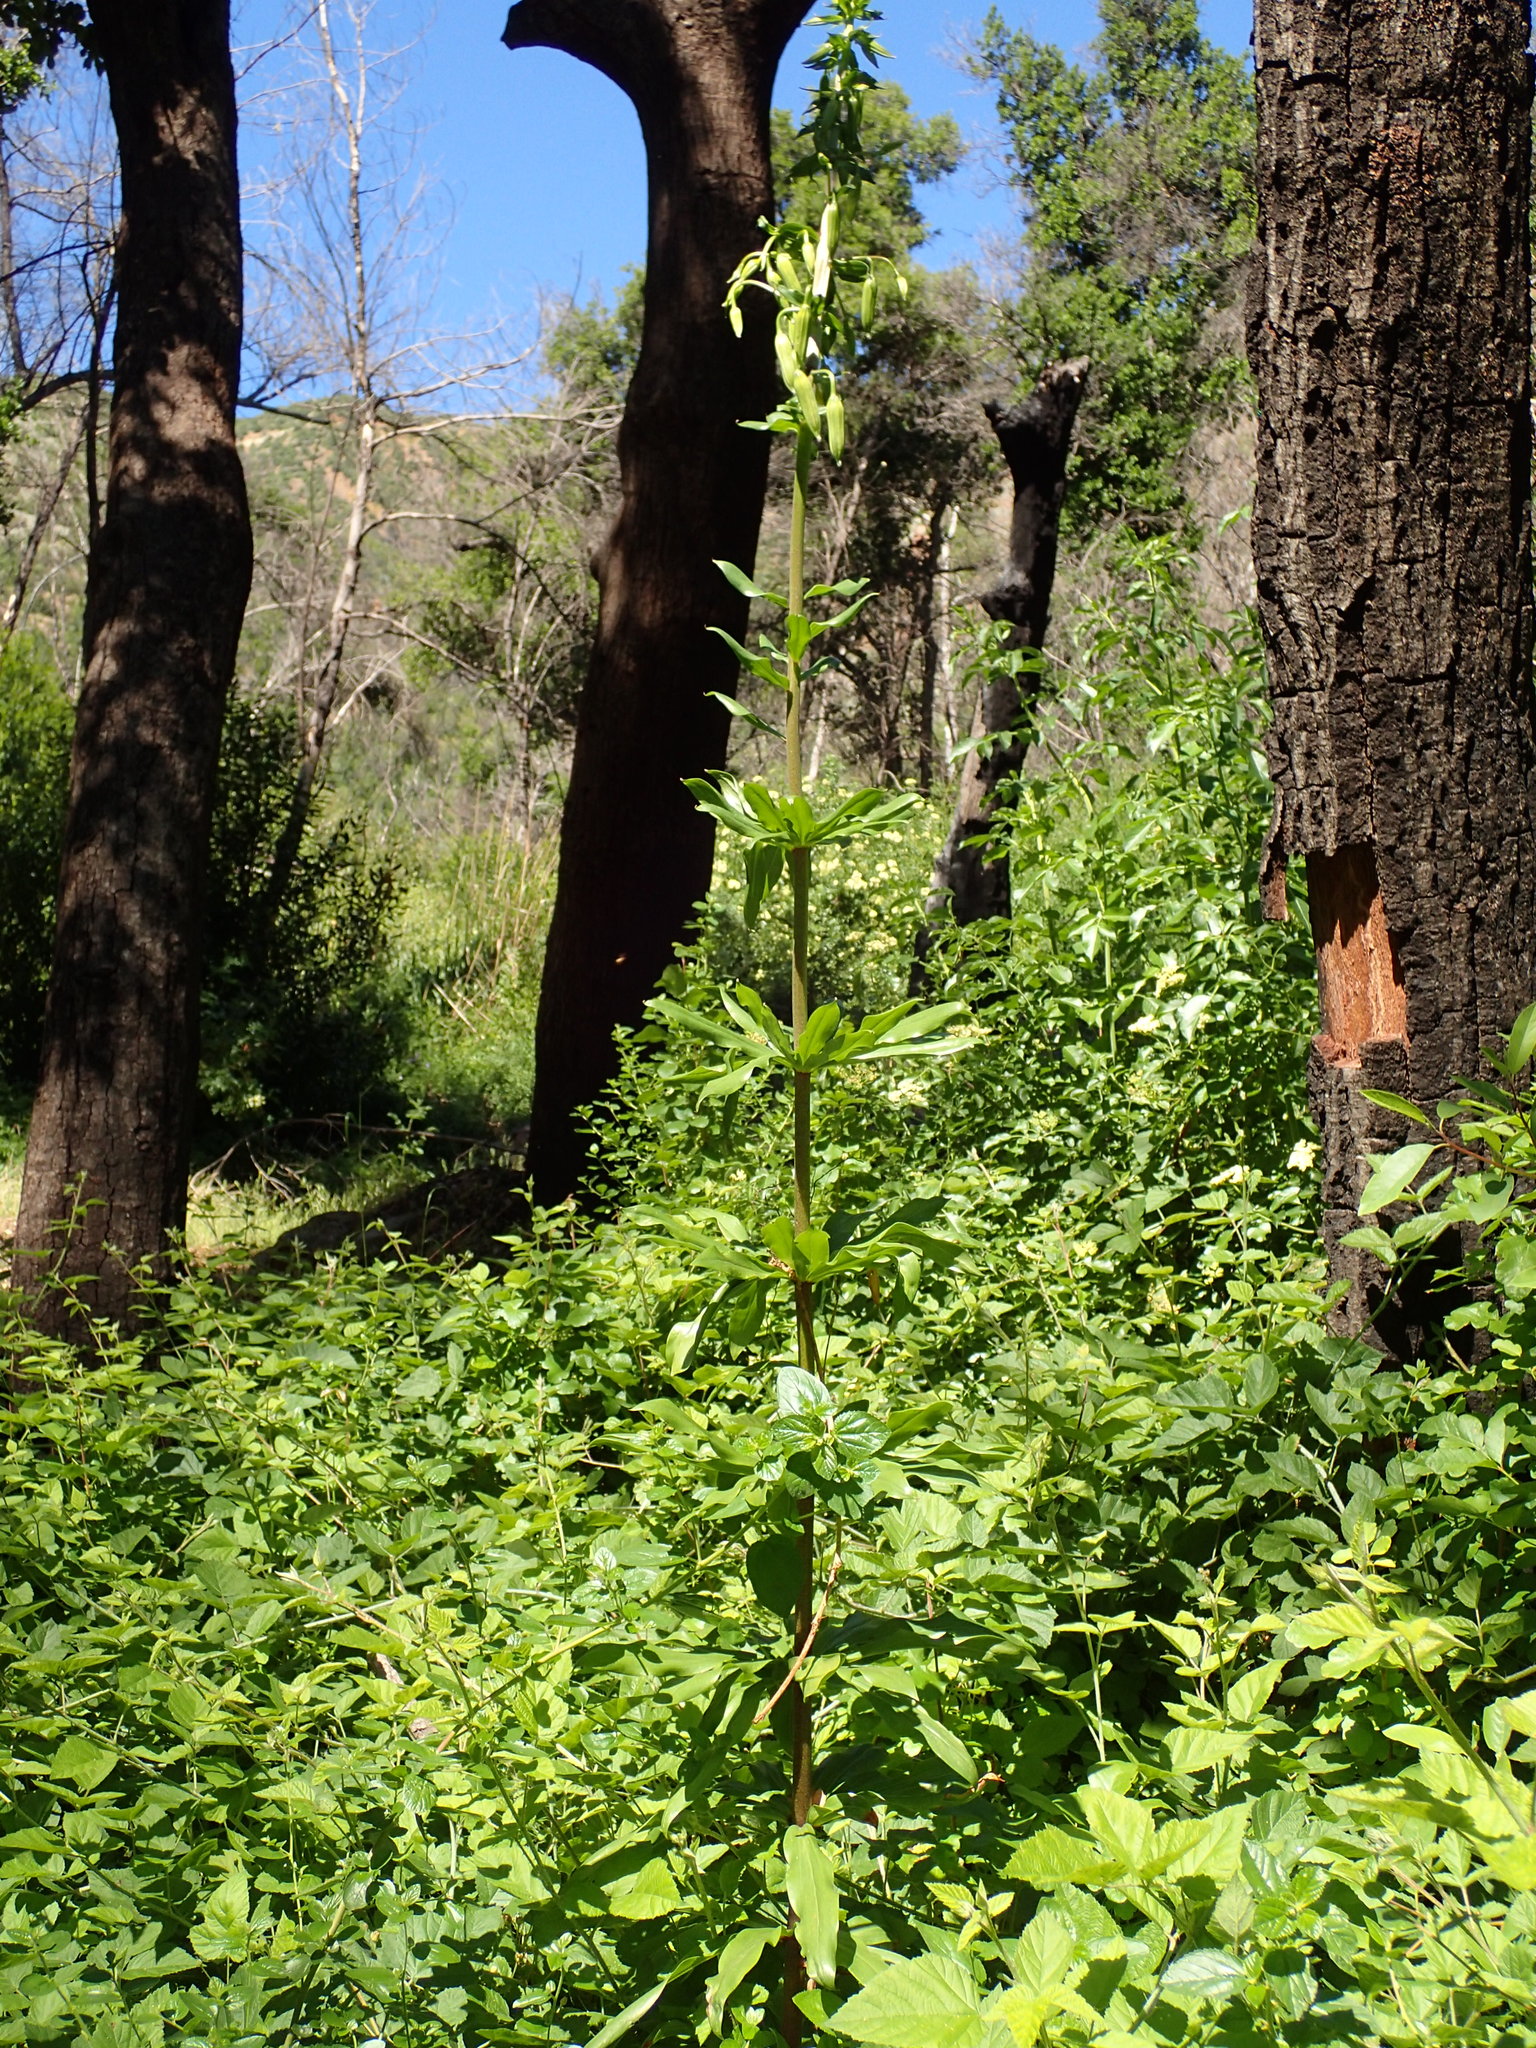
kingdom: Plantae
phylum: Tracheophyta
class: Liliopsida
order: Liliales
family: Liliaceae
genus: Lilium
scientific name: Lilium humboldtii
